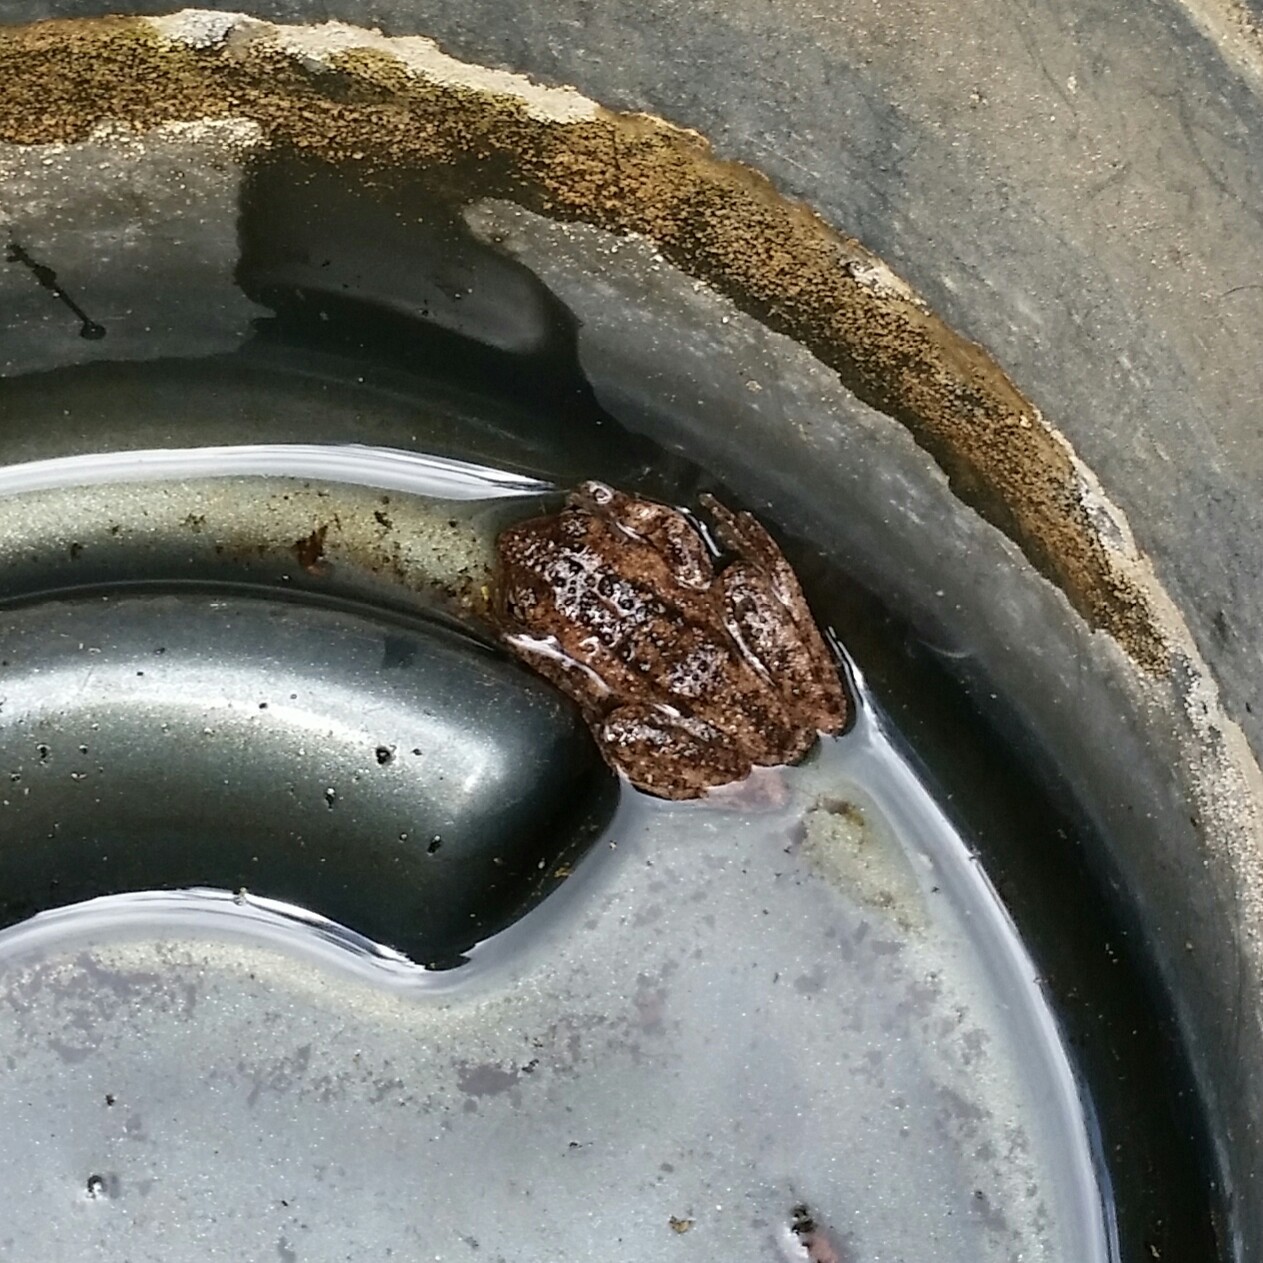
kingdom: Animalia
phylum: Chordata
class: Amphibia
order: Anura
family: Pelodryadidae
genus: Litoria
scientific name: Litoria peronii
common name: Emerald spotted treefrog
